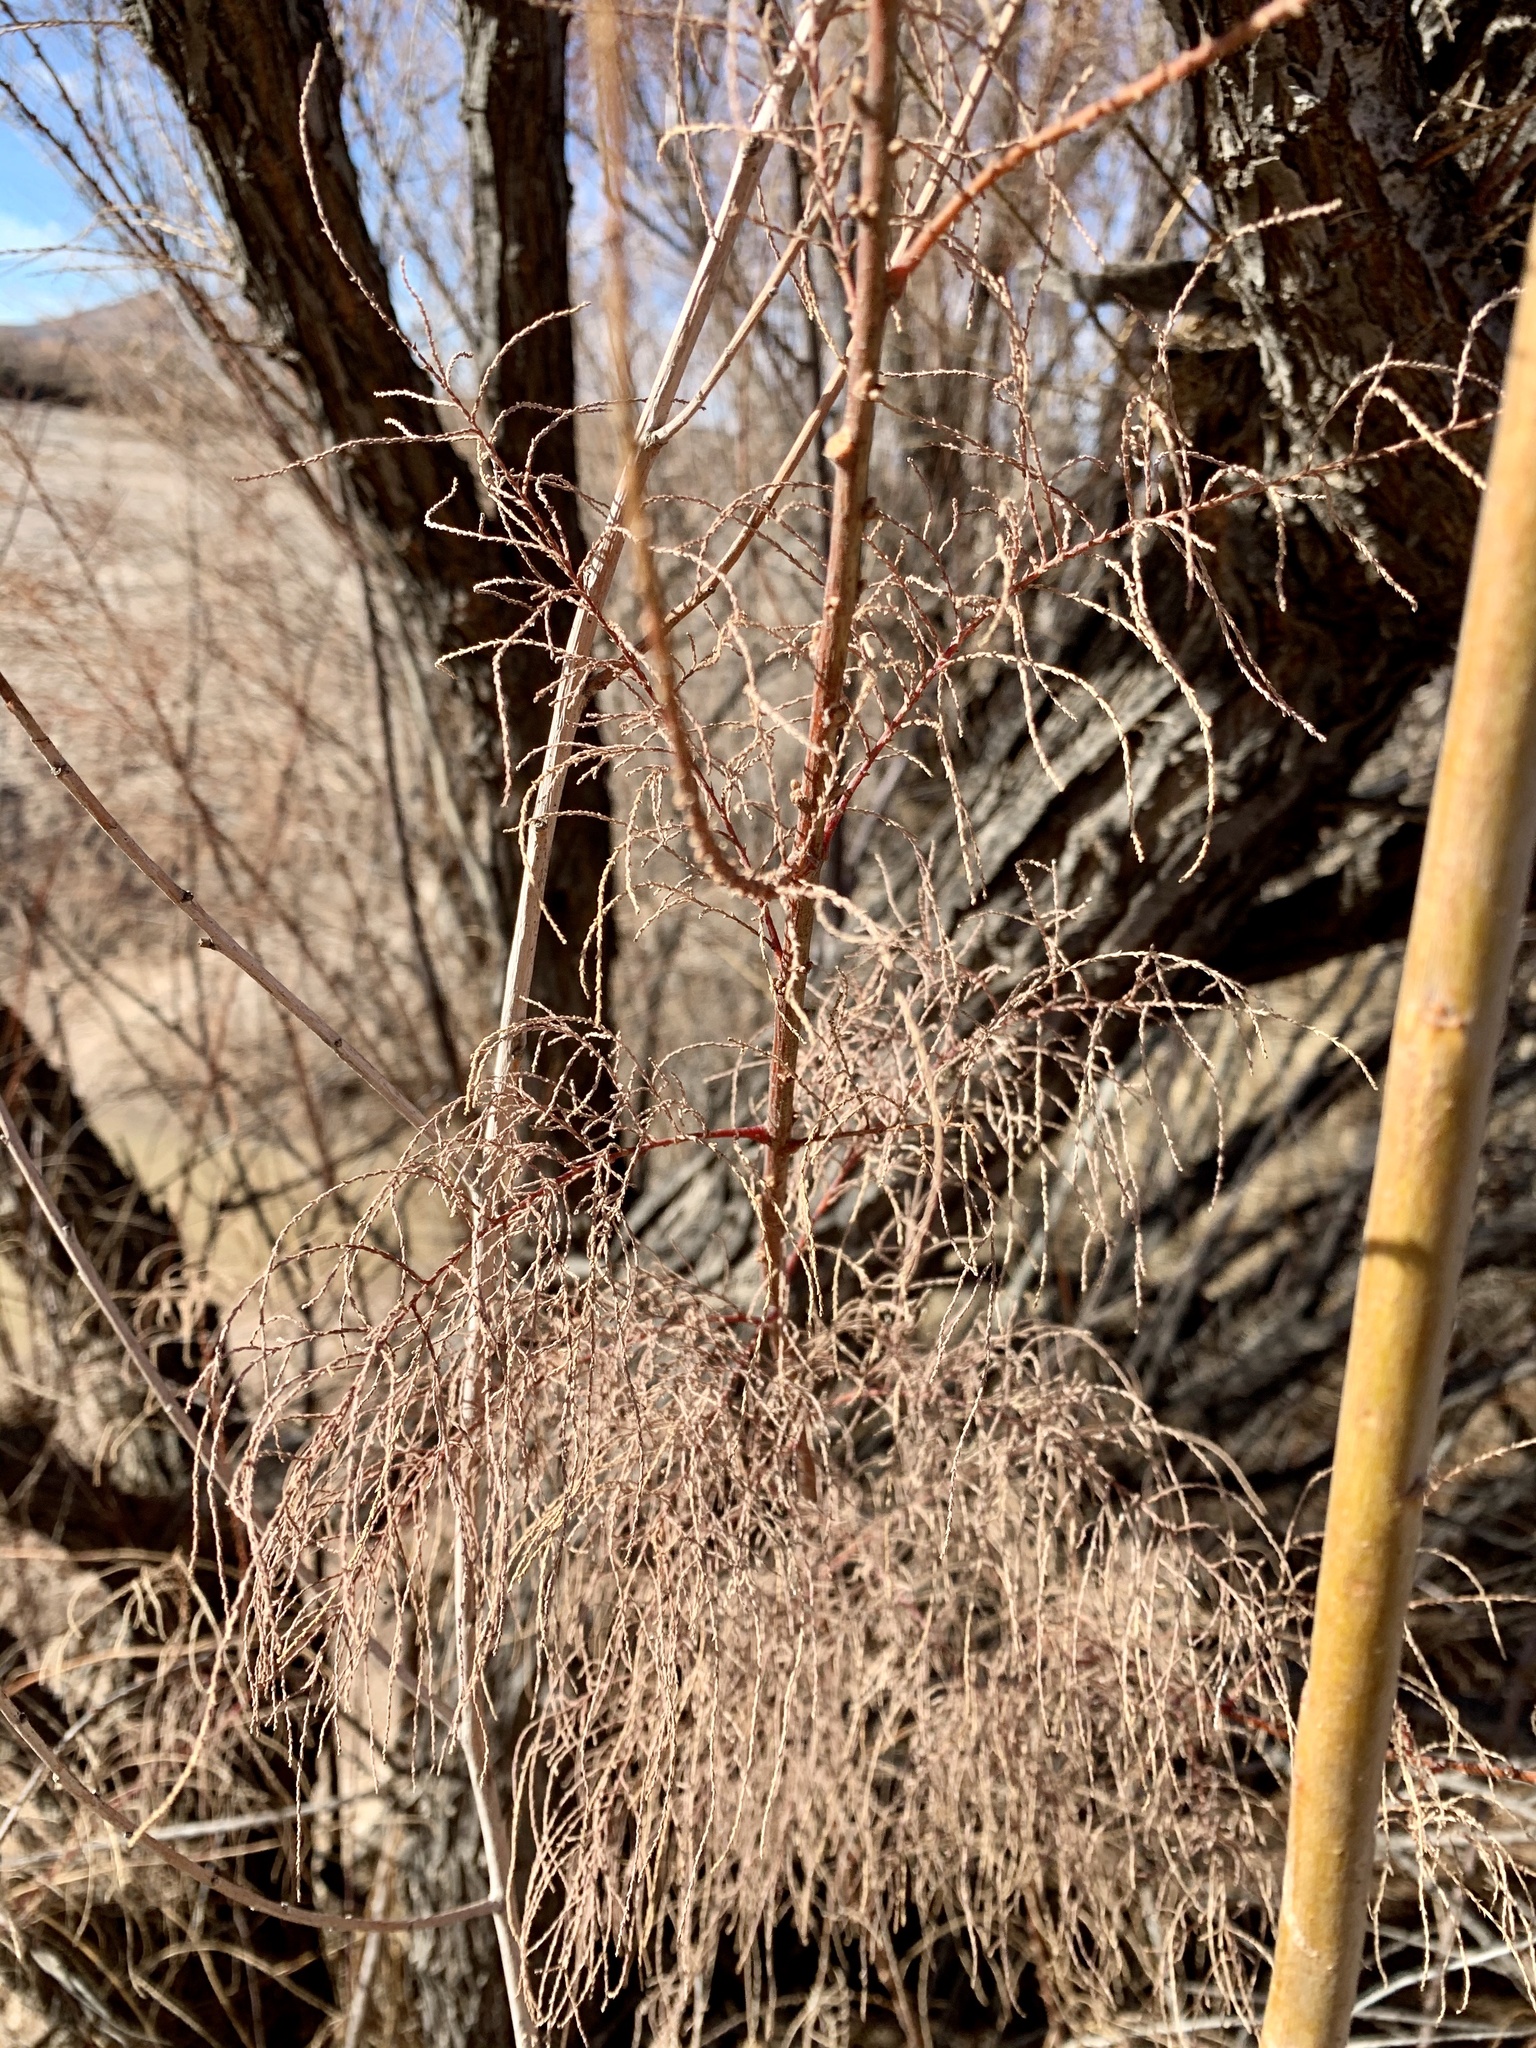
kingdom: Plantae
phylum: Tracheophyta
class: Magnoliopsida
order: Caryophyllales
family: Tamaricaceae
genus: Tamarix
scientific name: Tamarix
